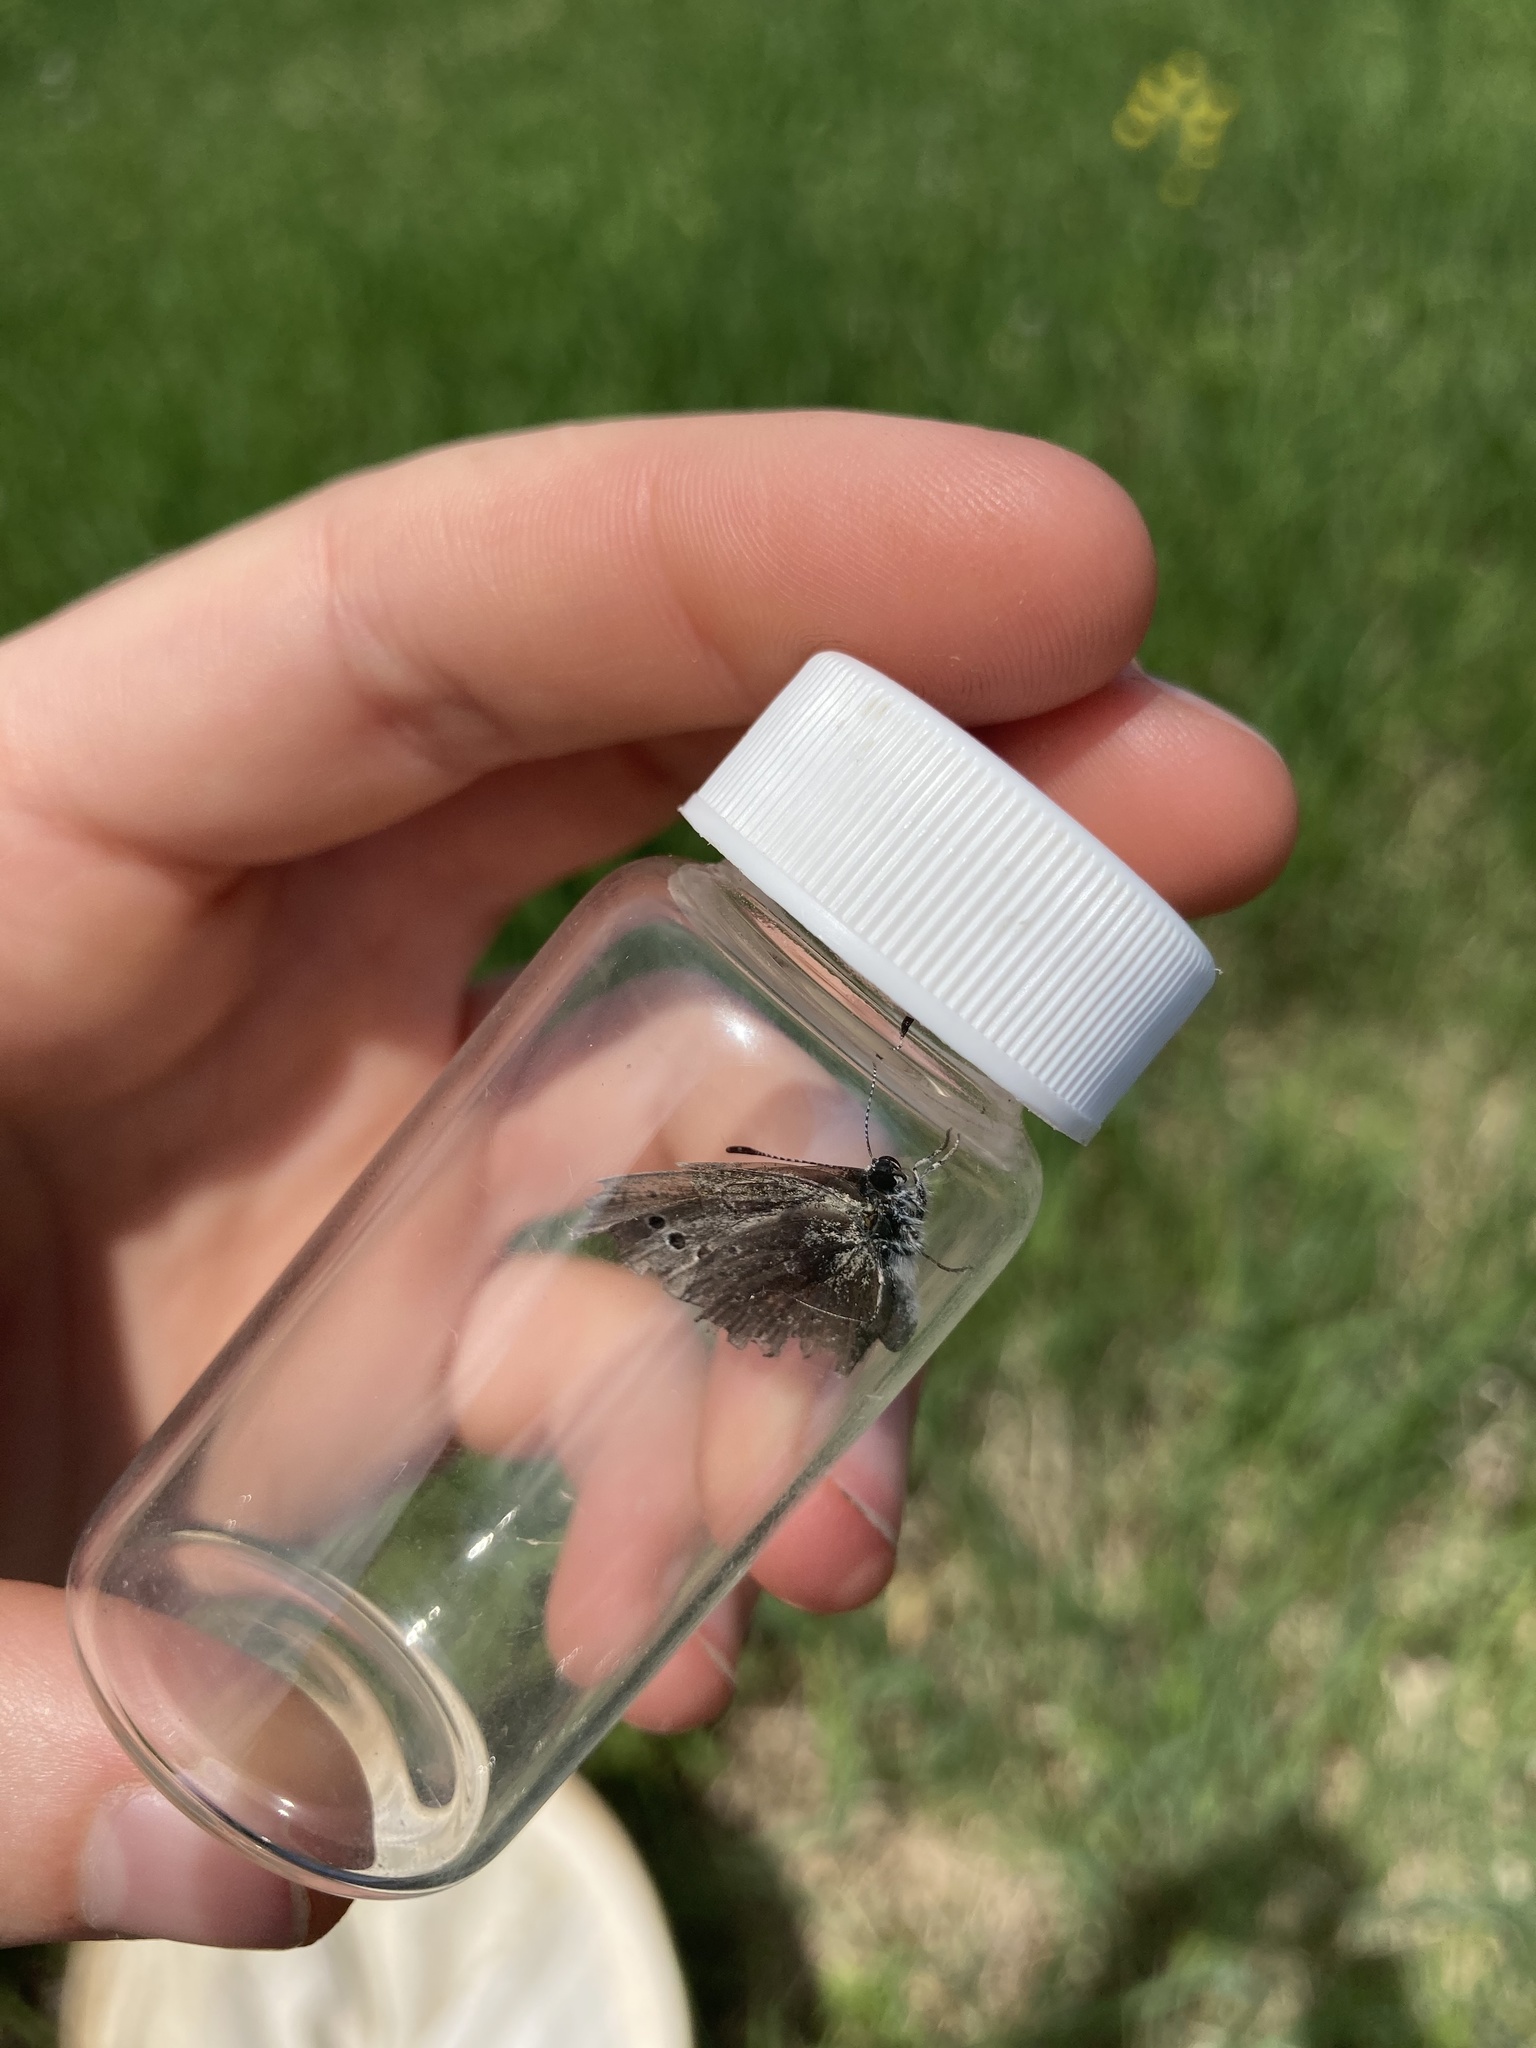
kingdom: Animalia
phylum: Arthropoda
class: Insecta
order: Lepidoptera
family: Lycaenidae
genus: Glaucopsyche
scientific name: Glaucopsyche lygdamus
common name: Silvery blue
